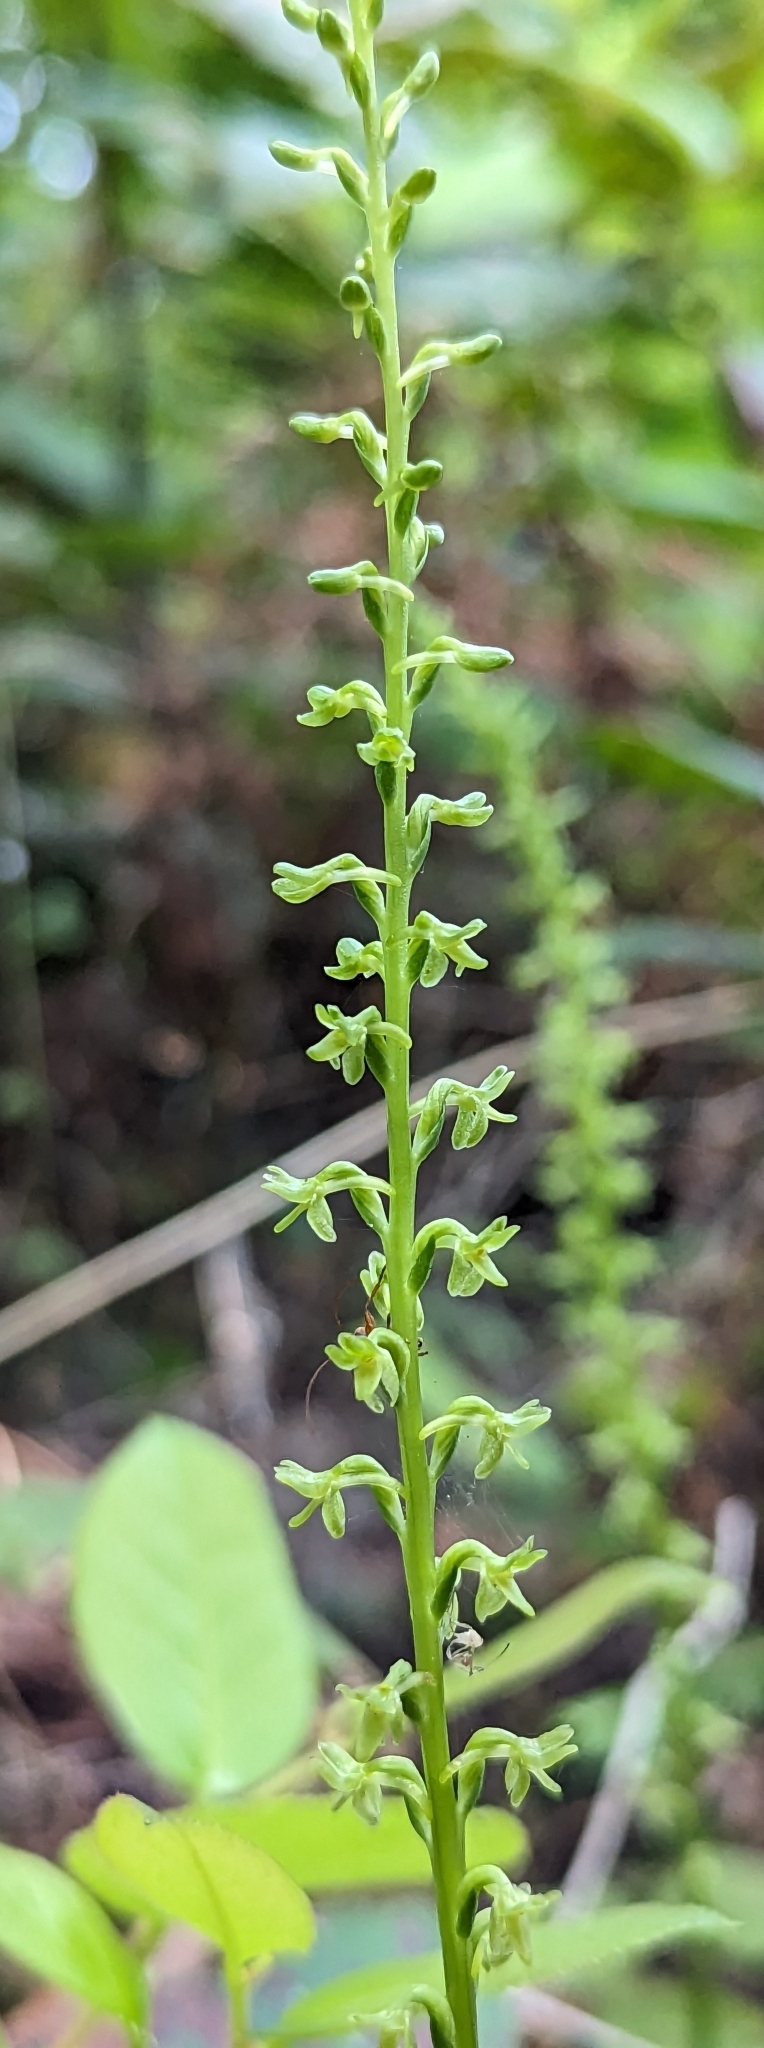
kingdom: Plantae
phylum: Tracheophyta
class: Liliopsida
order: Asparagales
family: Orchidaceae
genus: Platanthera
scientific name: Platanthera unalascensis
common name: Alaska bog orchid
